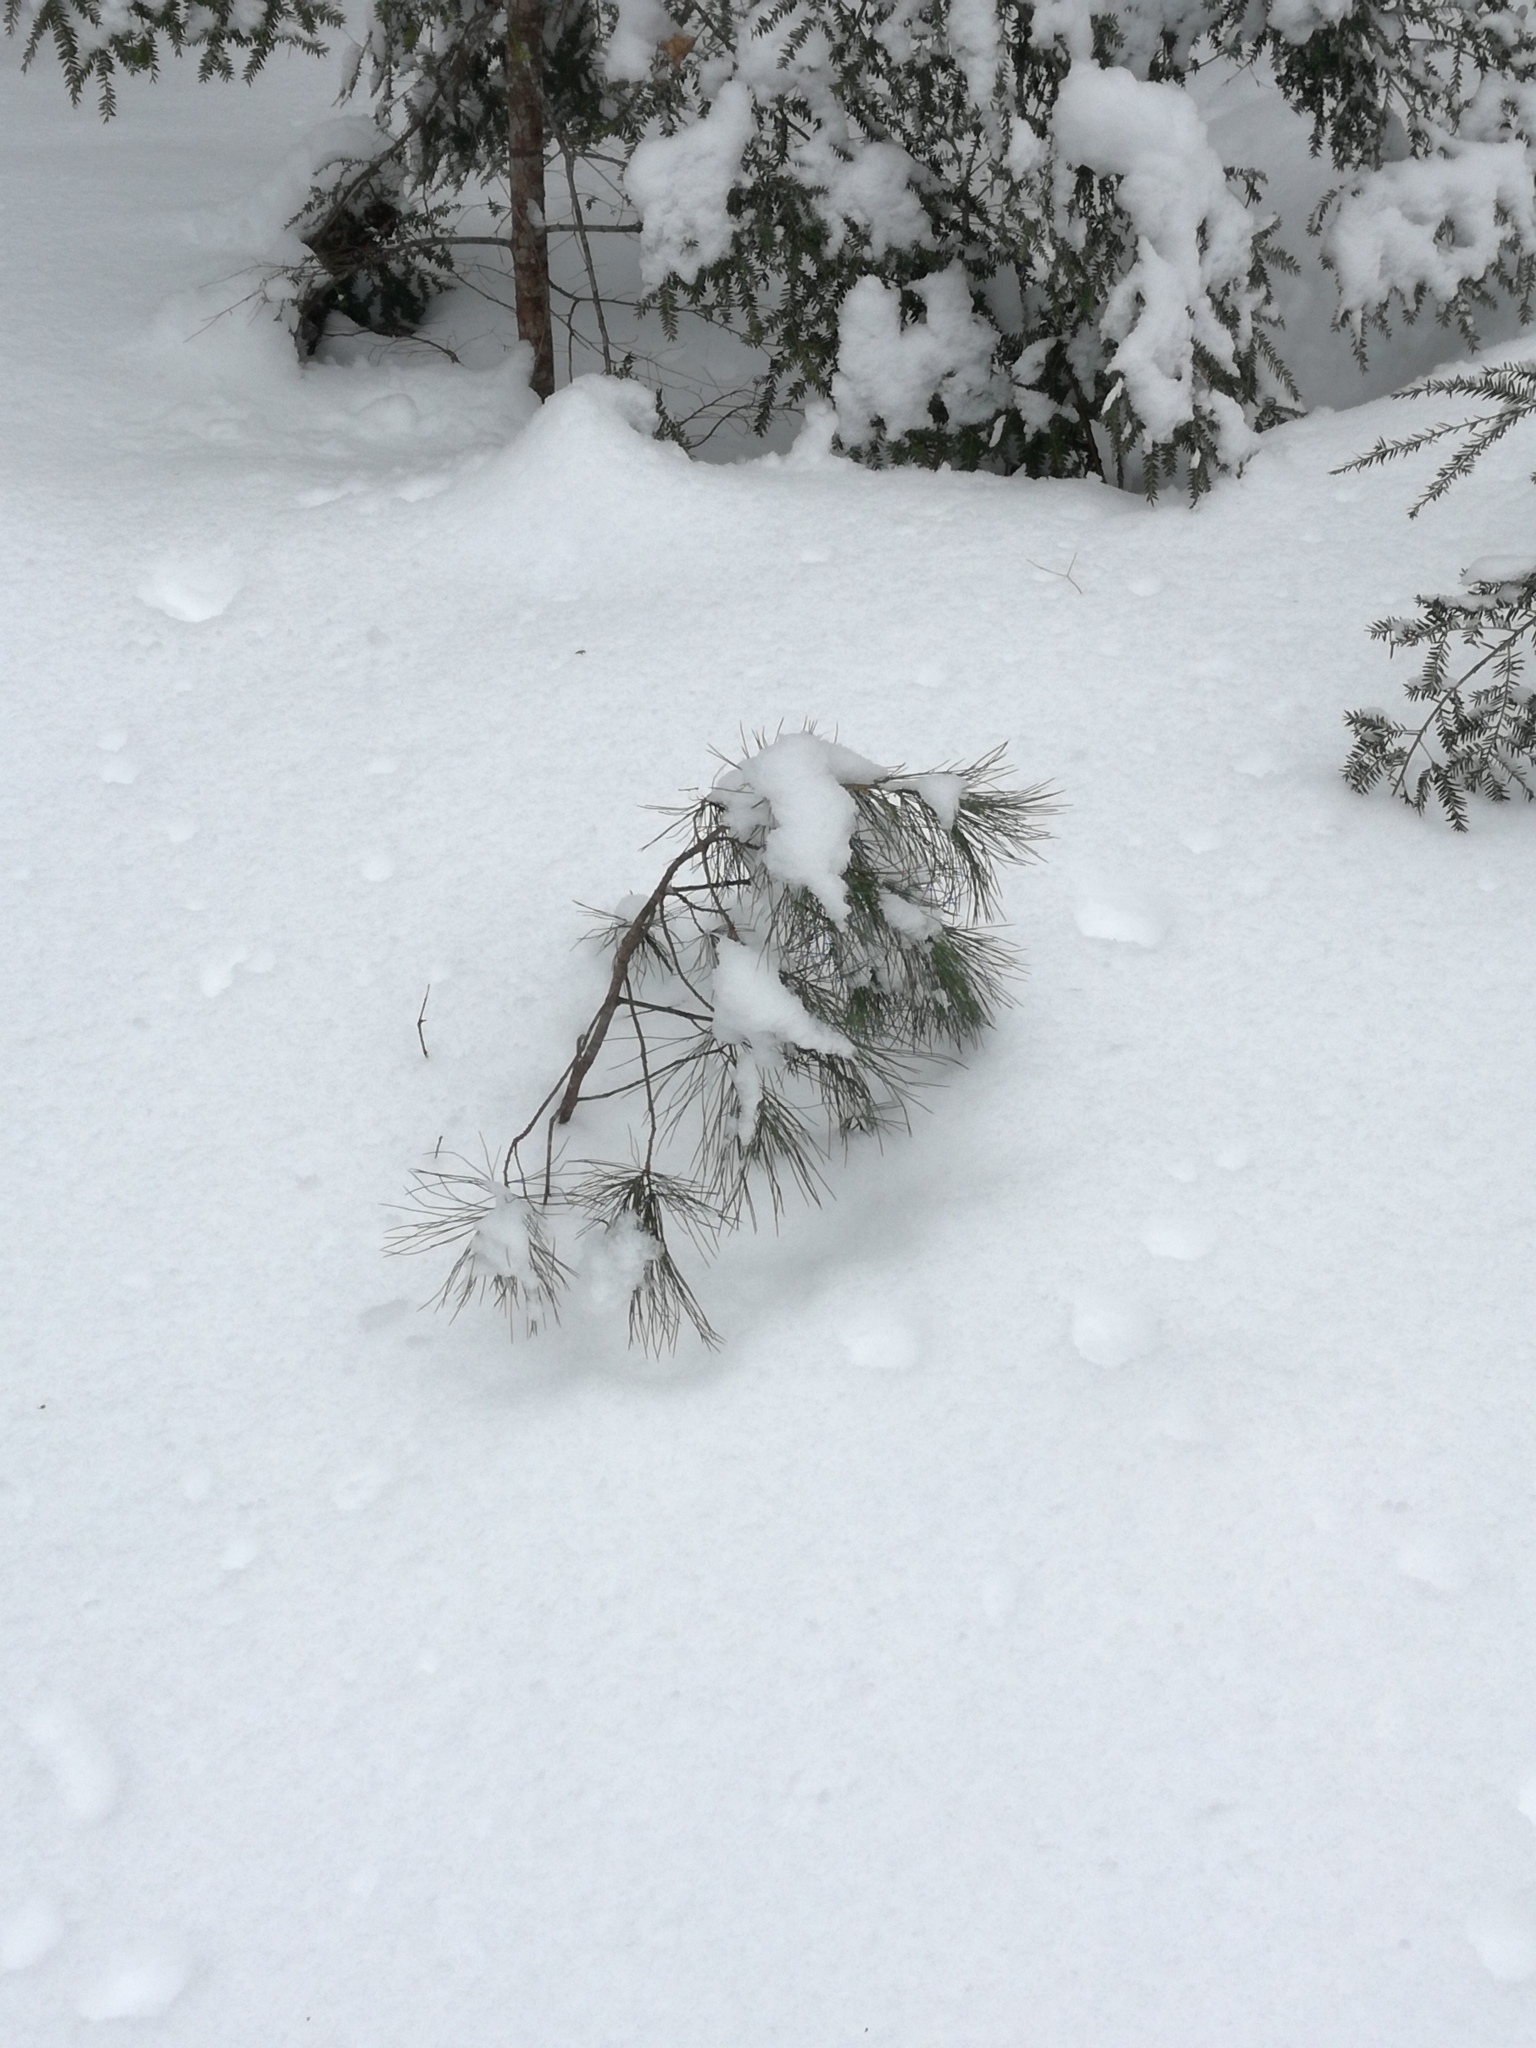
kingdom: Plantae
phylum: Tracheophyta
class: Pinopsida
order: Pinales
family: Pinaceae
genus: Pinus
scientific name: Pinus strobus
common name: Weymouth pine
